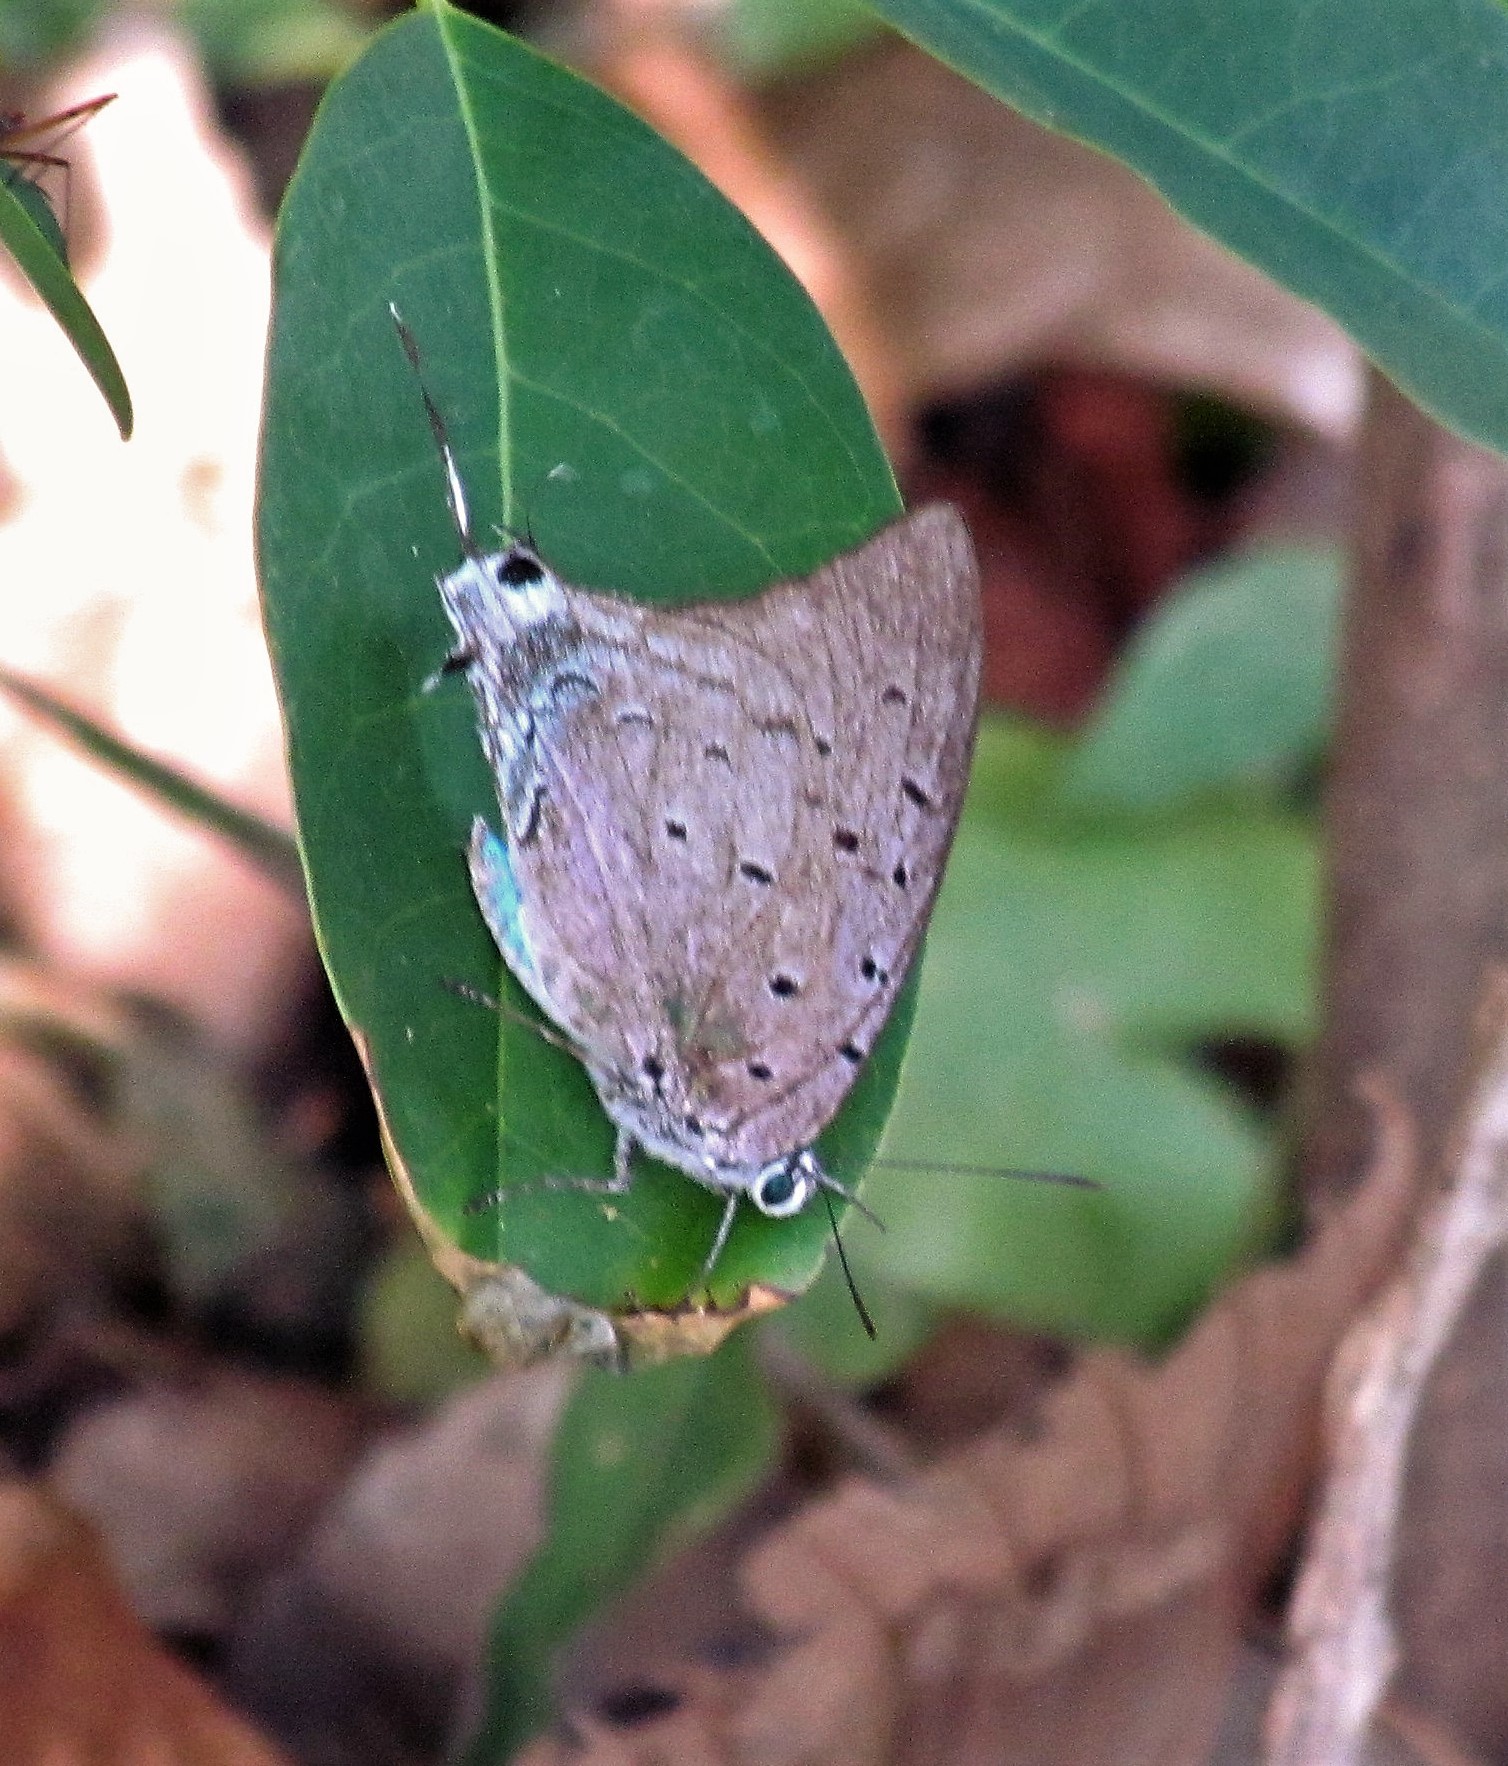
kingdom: Animalia
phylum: Arthropoda
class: Insecta
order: Lepidoptera
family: Lycaenidae
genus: Pseudolycaena
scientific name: Pseudolycaena marsyas
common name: Marsyas hairstreak
